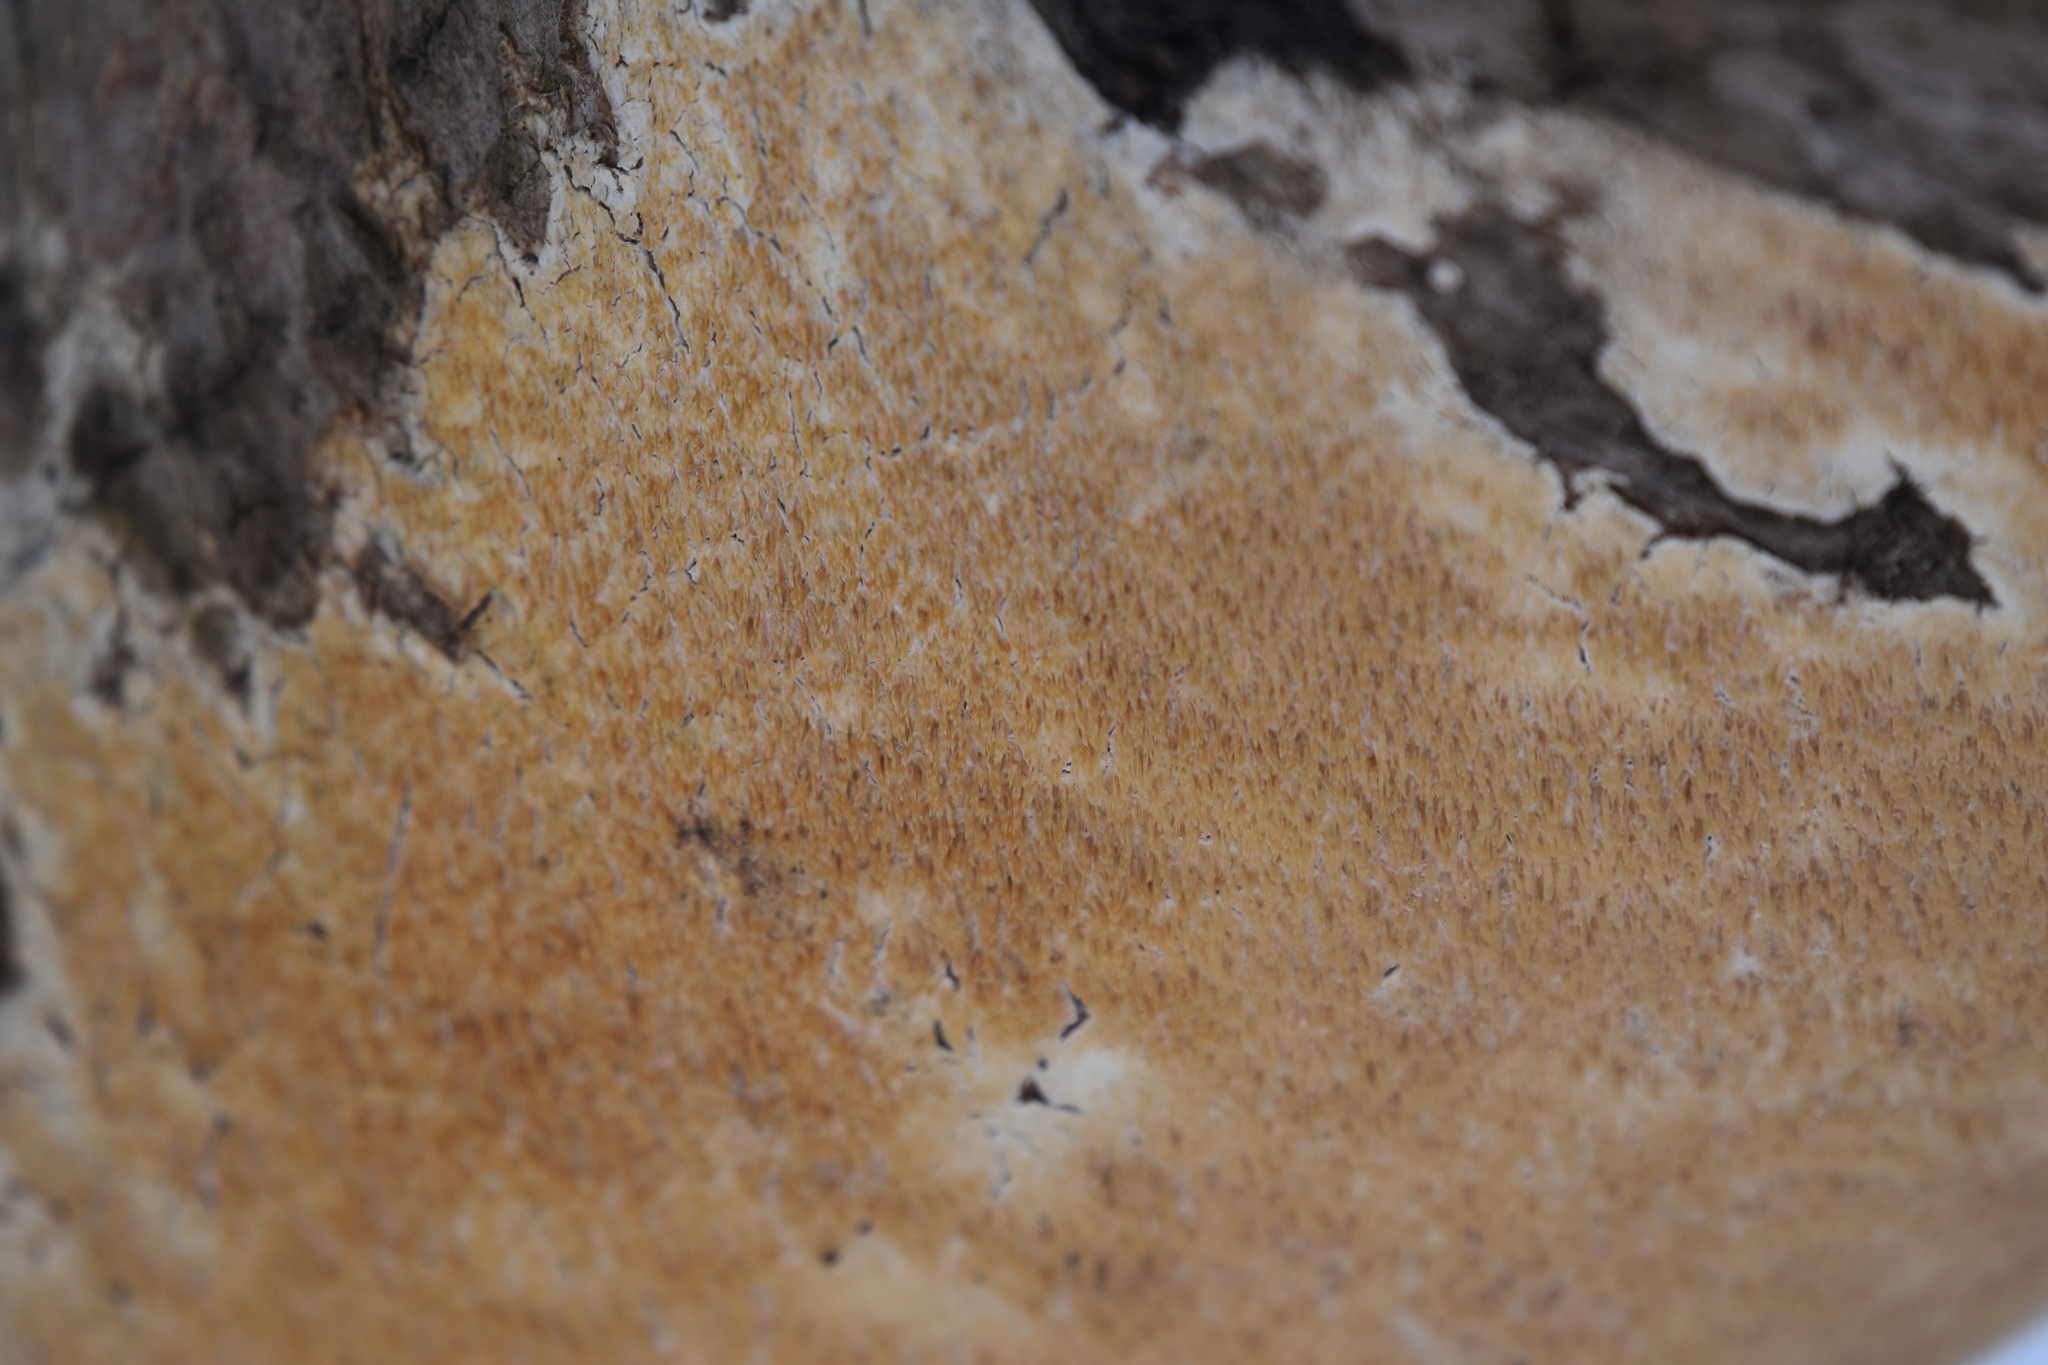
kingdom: Fungi
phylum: Basidiomycota
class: Agaricomycetes
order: Polyporales
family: Irpicaceae
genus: Irpex
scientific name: Irpex lacteus
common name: Milk-white toothed polypore
